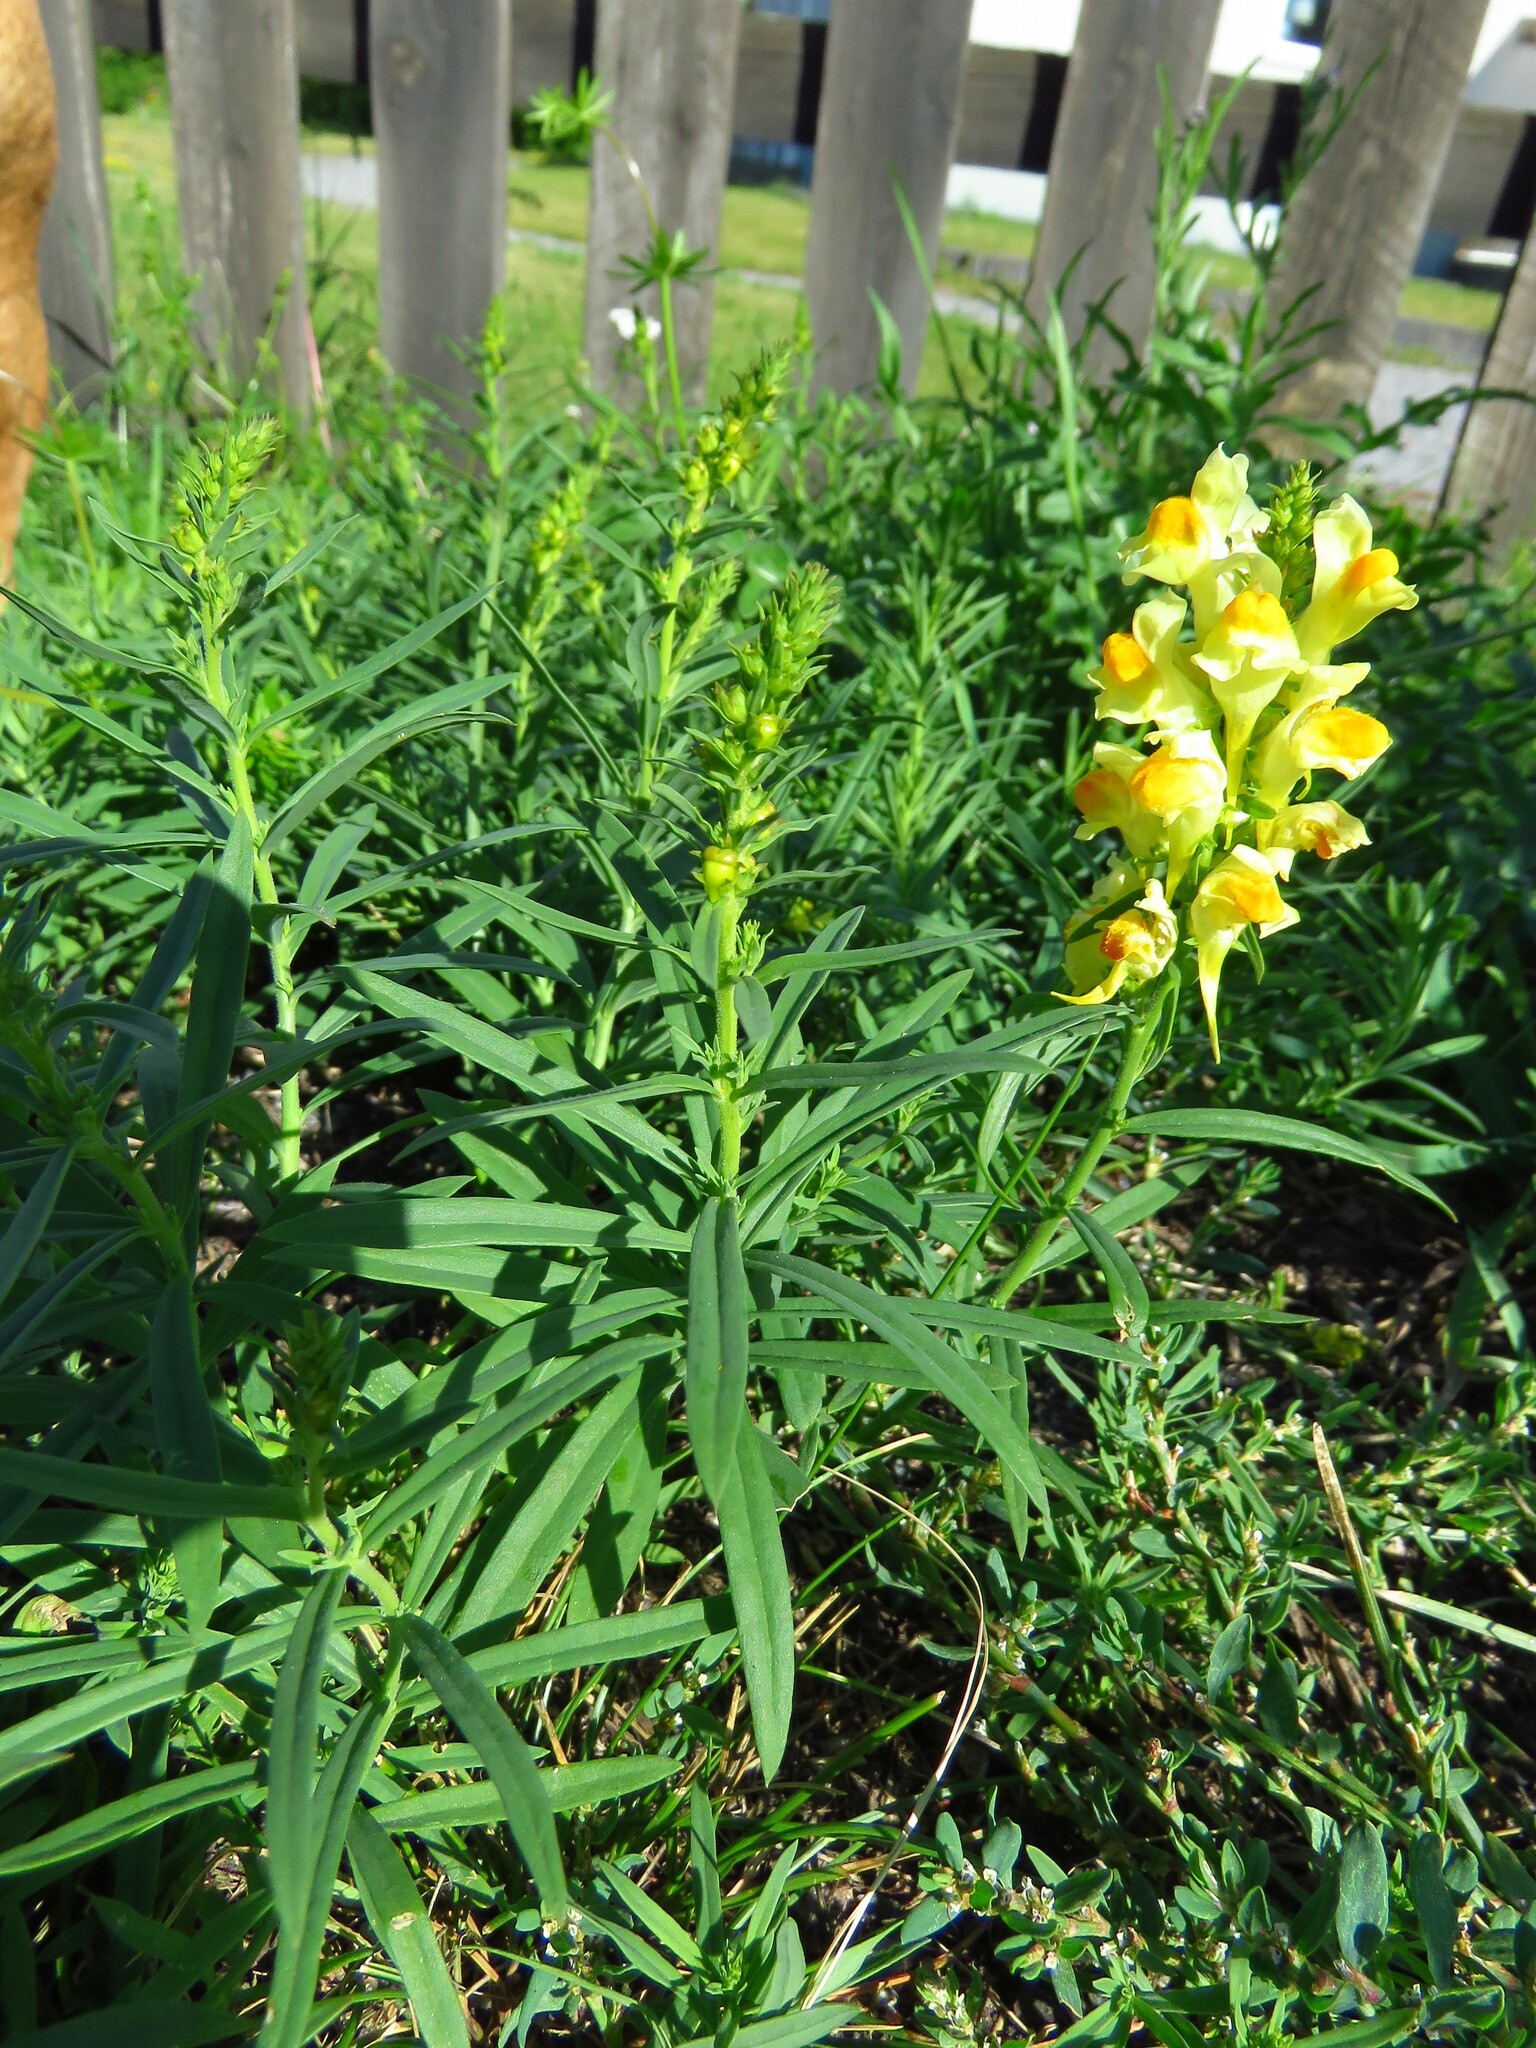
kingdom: Plantae
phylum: Tracheophyta
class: Magnoliopsida
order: Lamiales
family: Plantaginaceae
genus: Linaria
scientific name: Linaria vulgaris
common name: Butter and eggs
